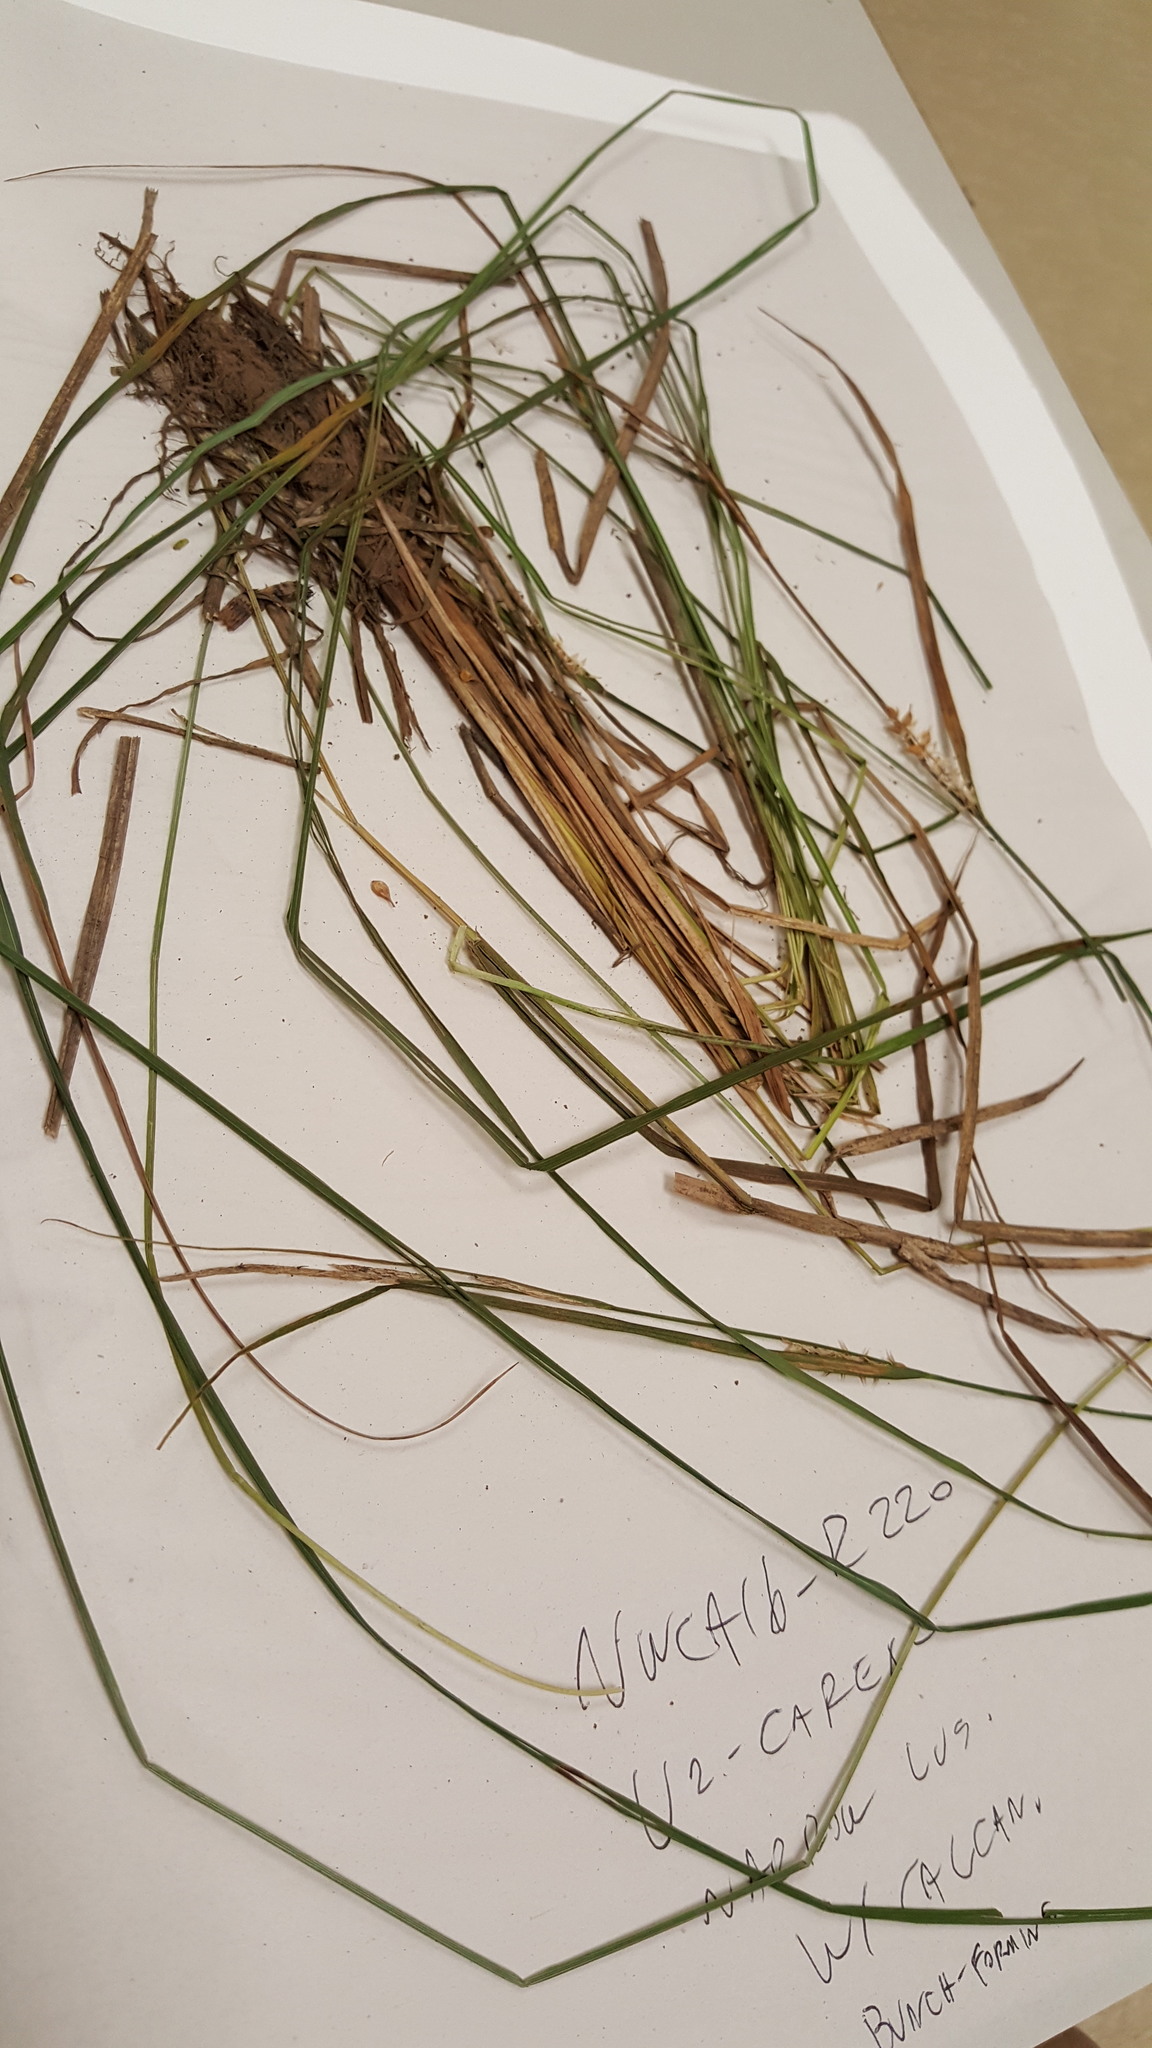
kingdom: Plantae
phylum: Tracheophyta
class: Liliopsida
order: Poales
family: Cyperaceae
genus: Carex
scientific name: Carex vesicaria
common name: Bladder-sedge
